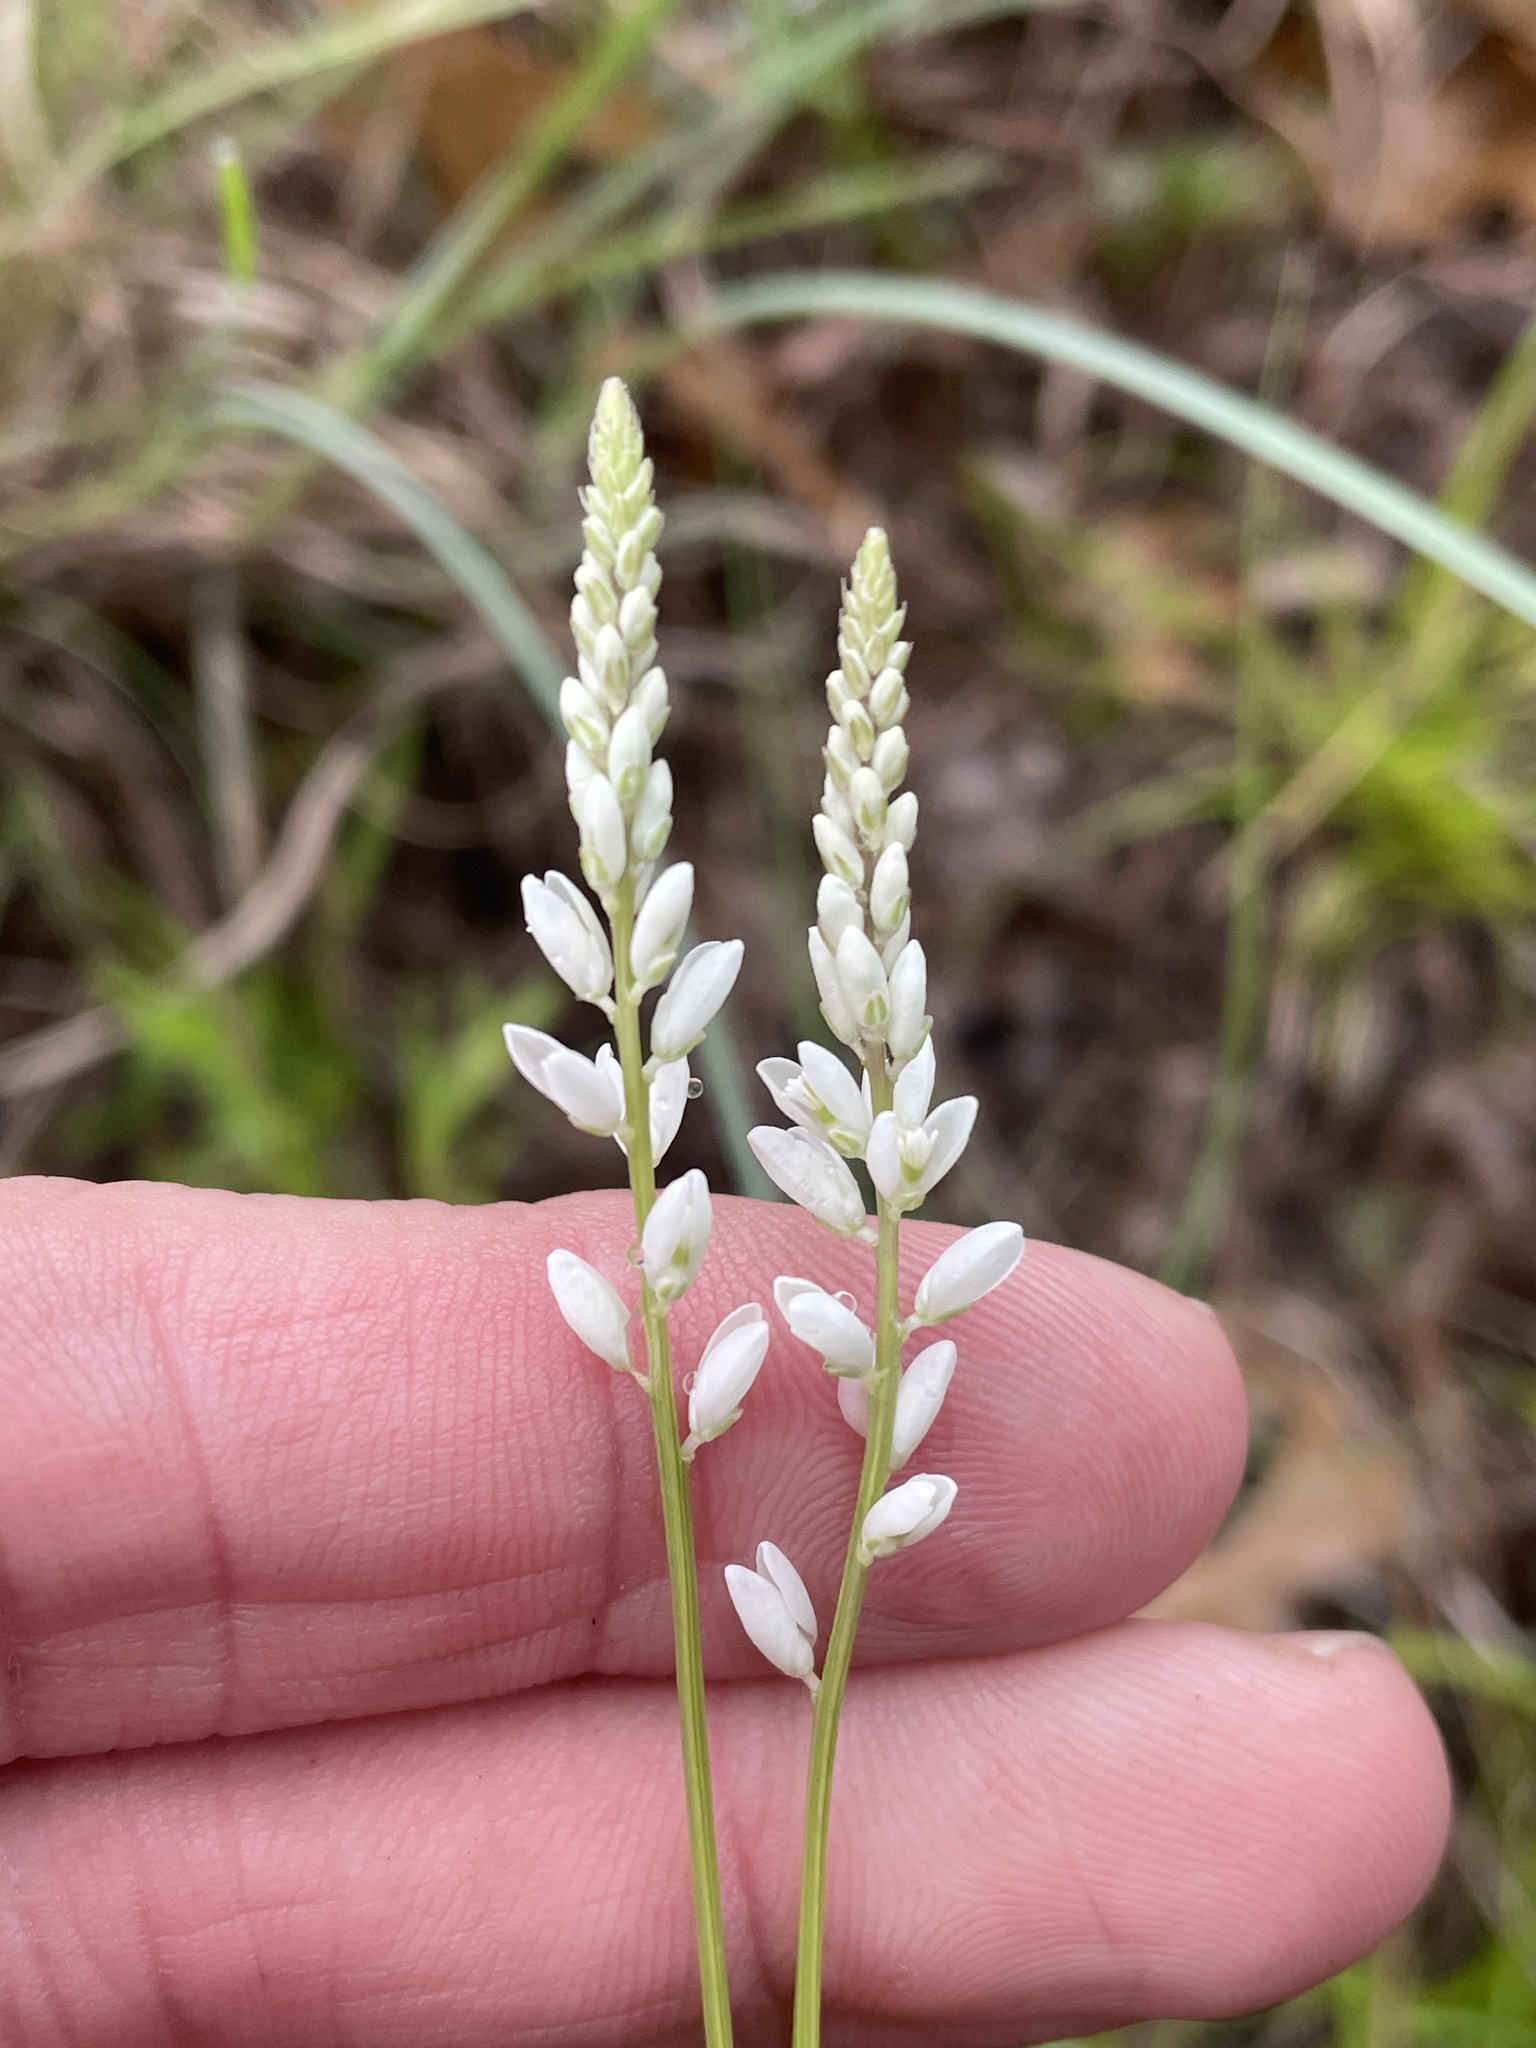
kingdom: Plantae
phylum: Tracheophyta
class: Magnoliopsida
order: Fabales
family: Polygalaceae
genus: Polygala
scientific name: Polygala alba
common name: White milkwort
